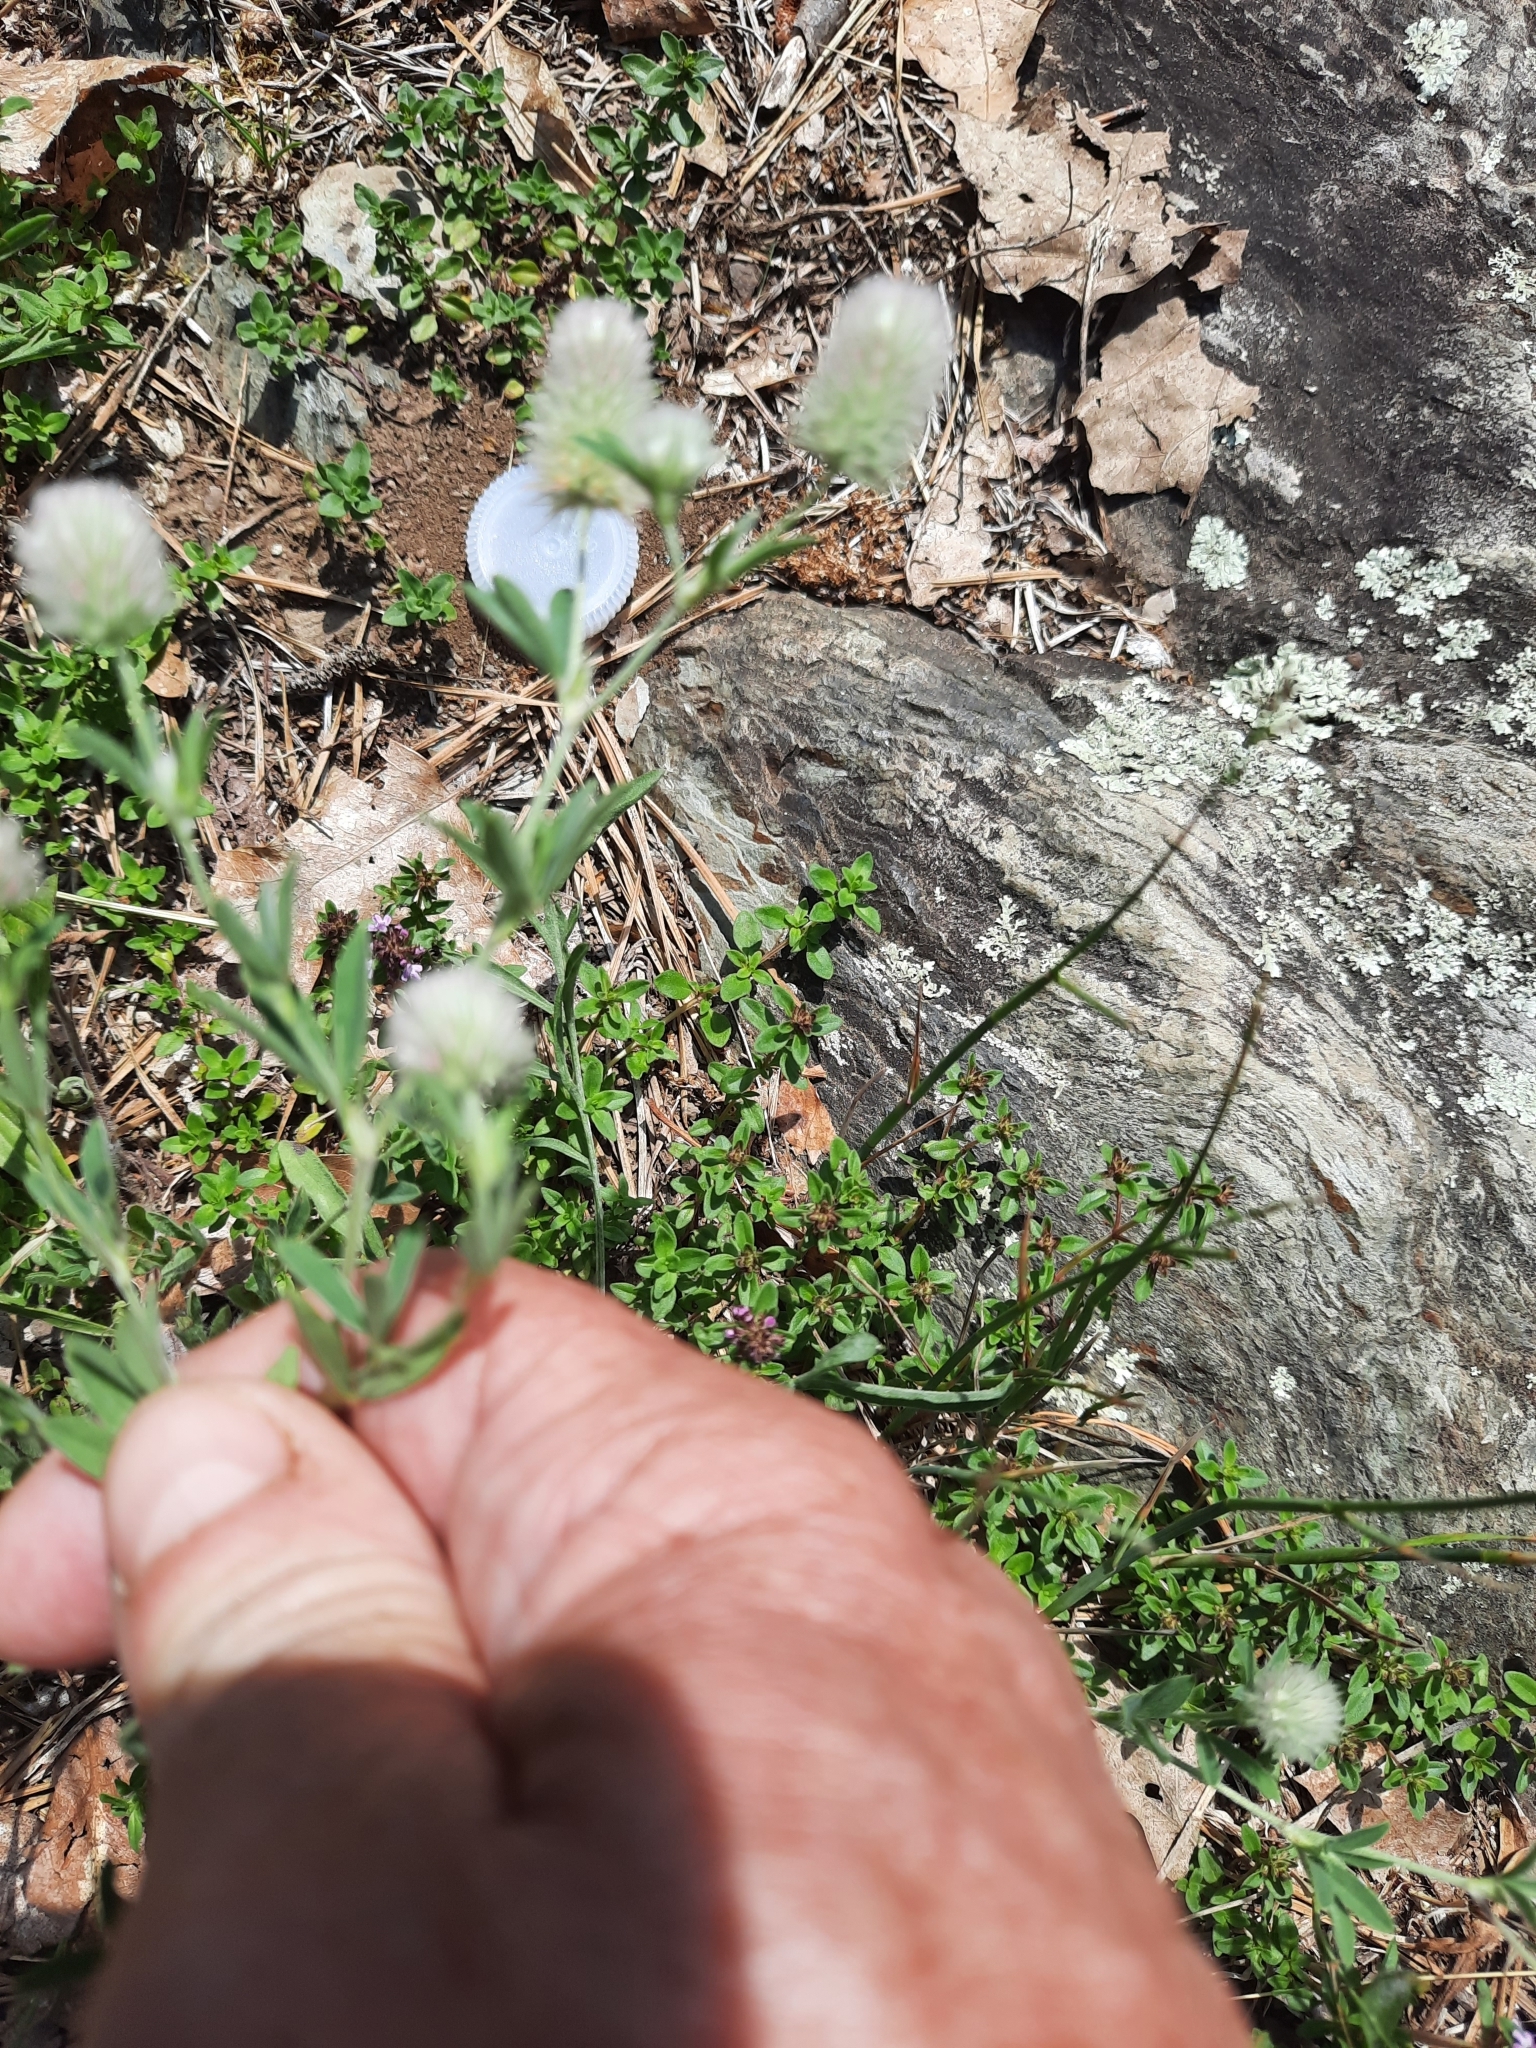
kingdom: Plantae
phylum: Tracheophyta
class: Magnoliopsida
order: Fabales
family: Fabaceae
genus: Trifolium
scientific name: Trifolium arvense
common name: Hare's-foot clover
